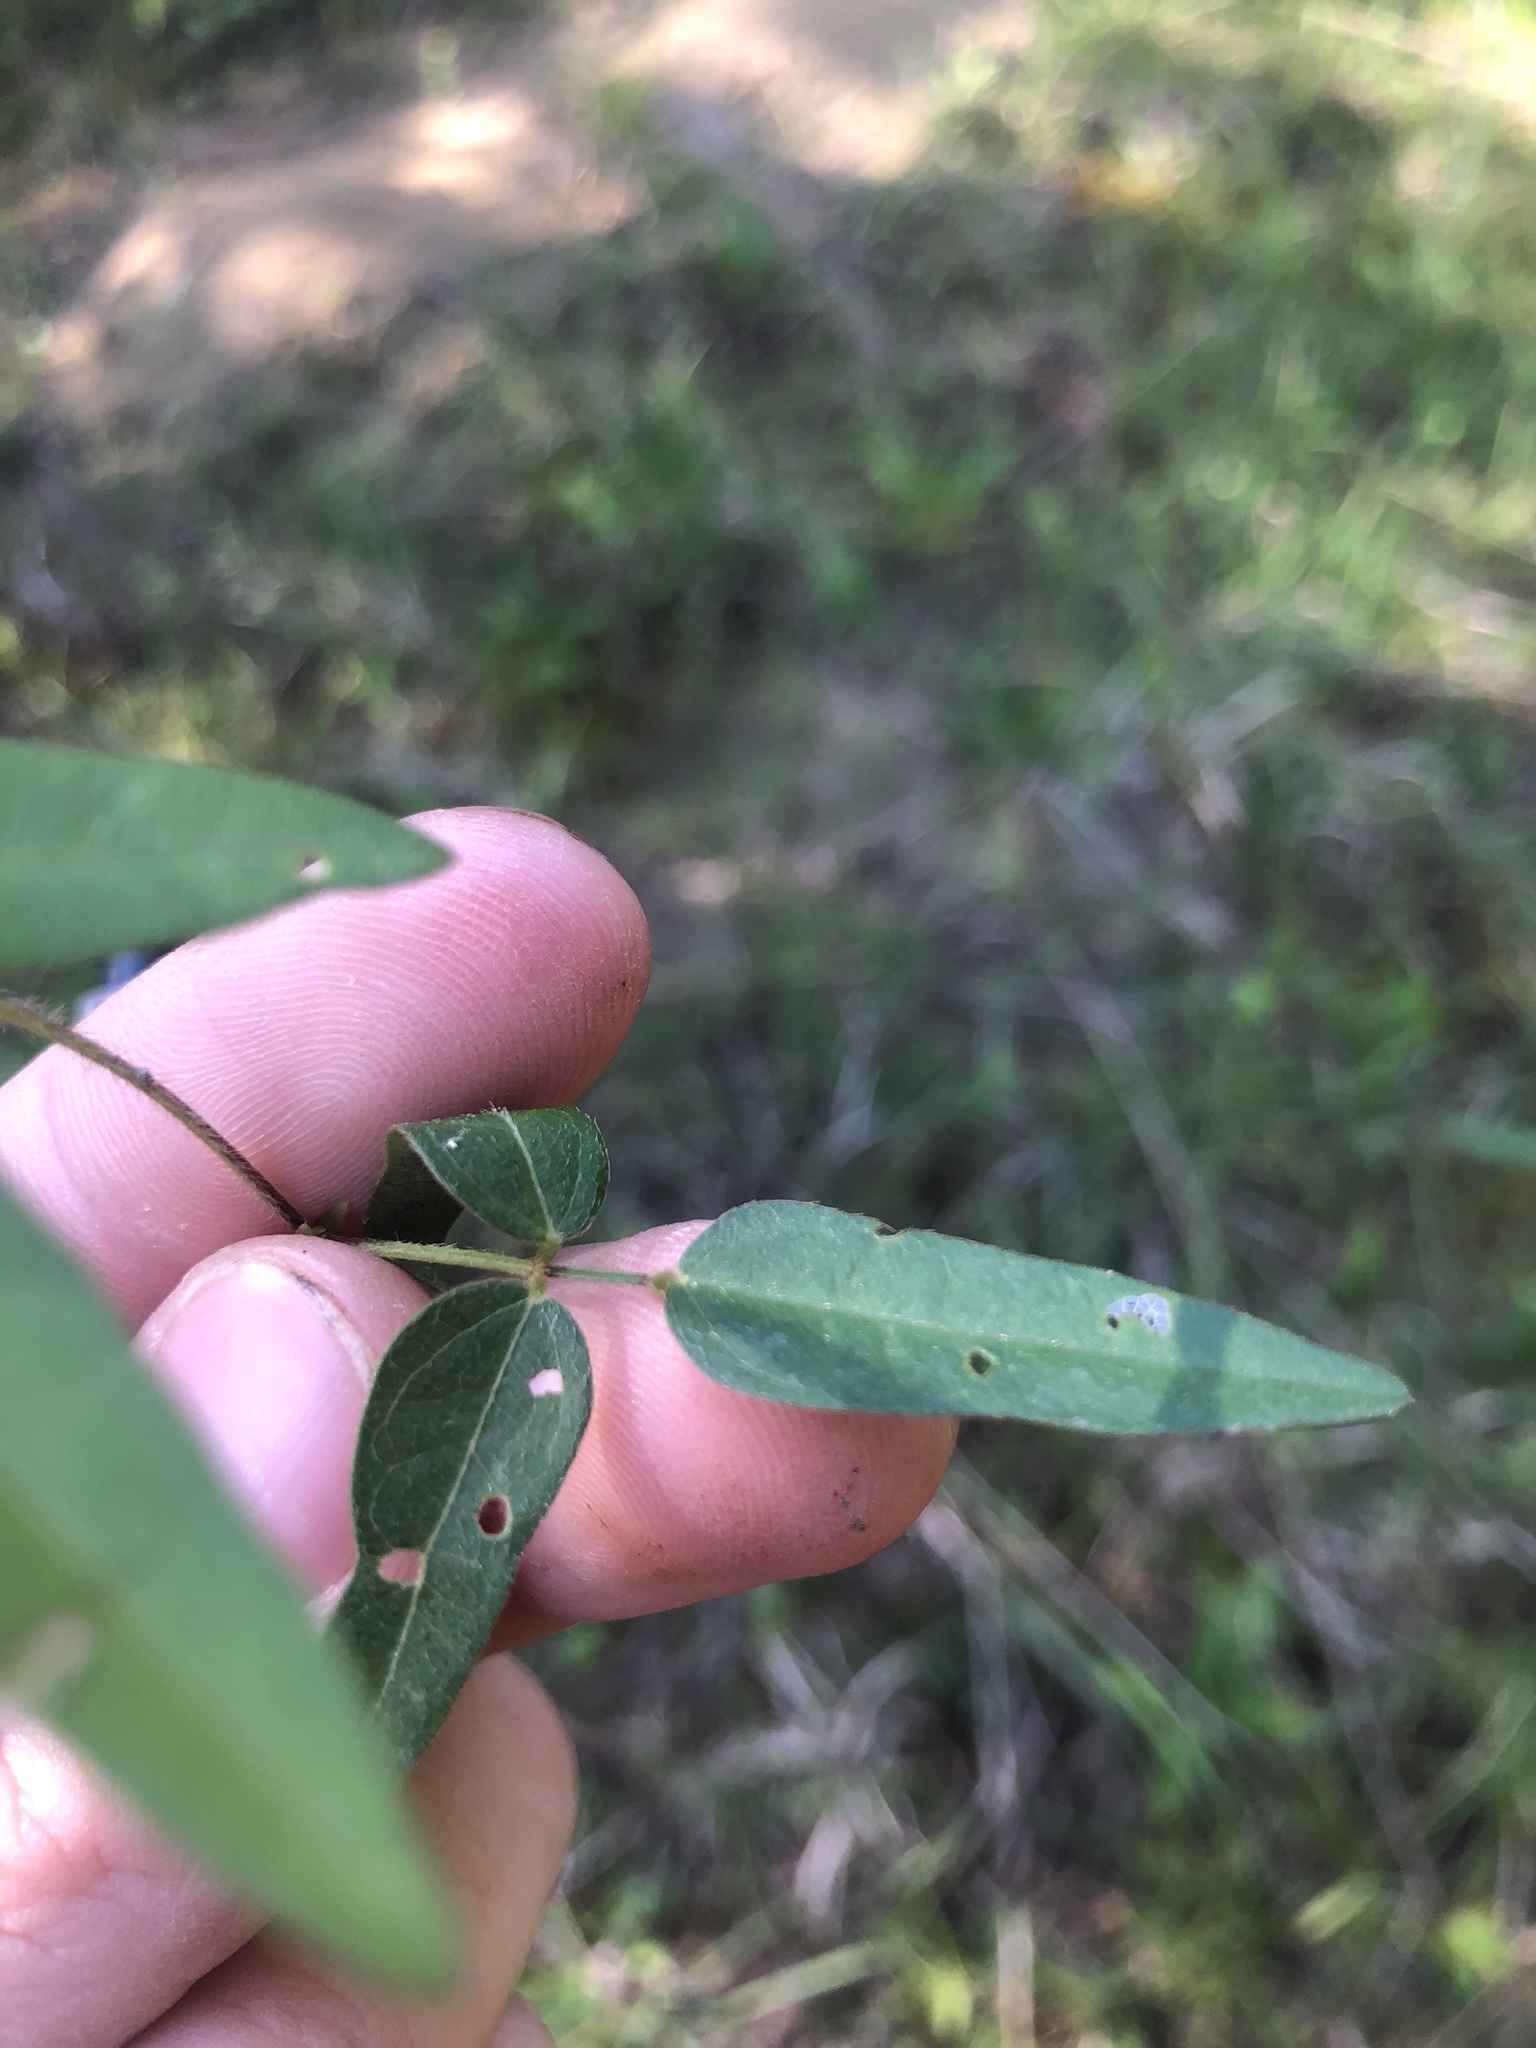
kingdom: Plantae
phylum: Tracheophyta
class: Magnoliopsida
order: Fabales
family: Fabaceae
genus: Strophostyles
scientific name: Strophostyles leiosperma
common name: Smooth-seed wild bean
